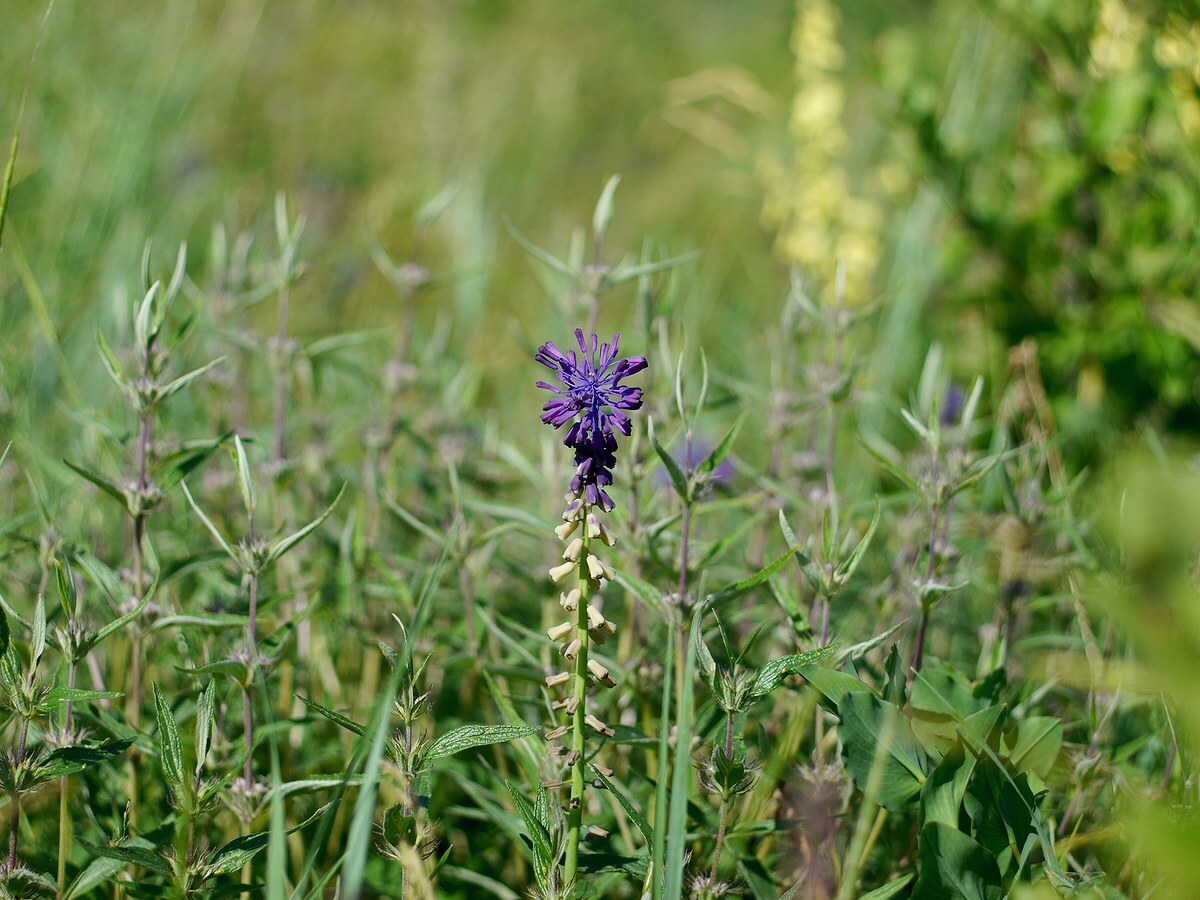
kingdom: Plantae
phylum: Tracheophyta
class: Liliopsida
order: Asparagales
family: Asparagaceae
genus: Muscari
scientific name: Muscari tenuiflorum
